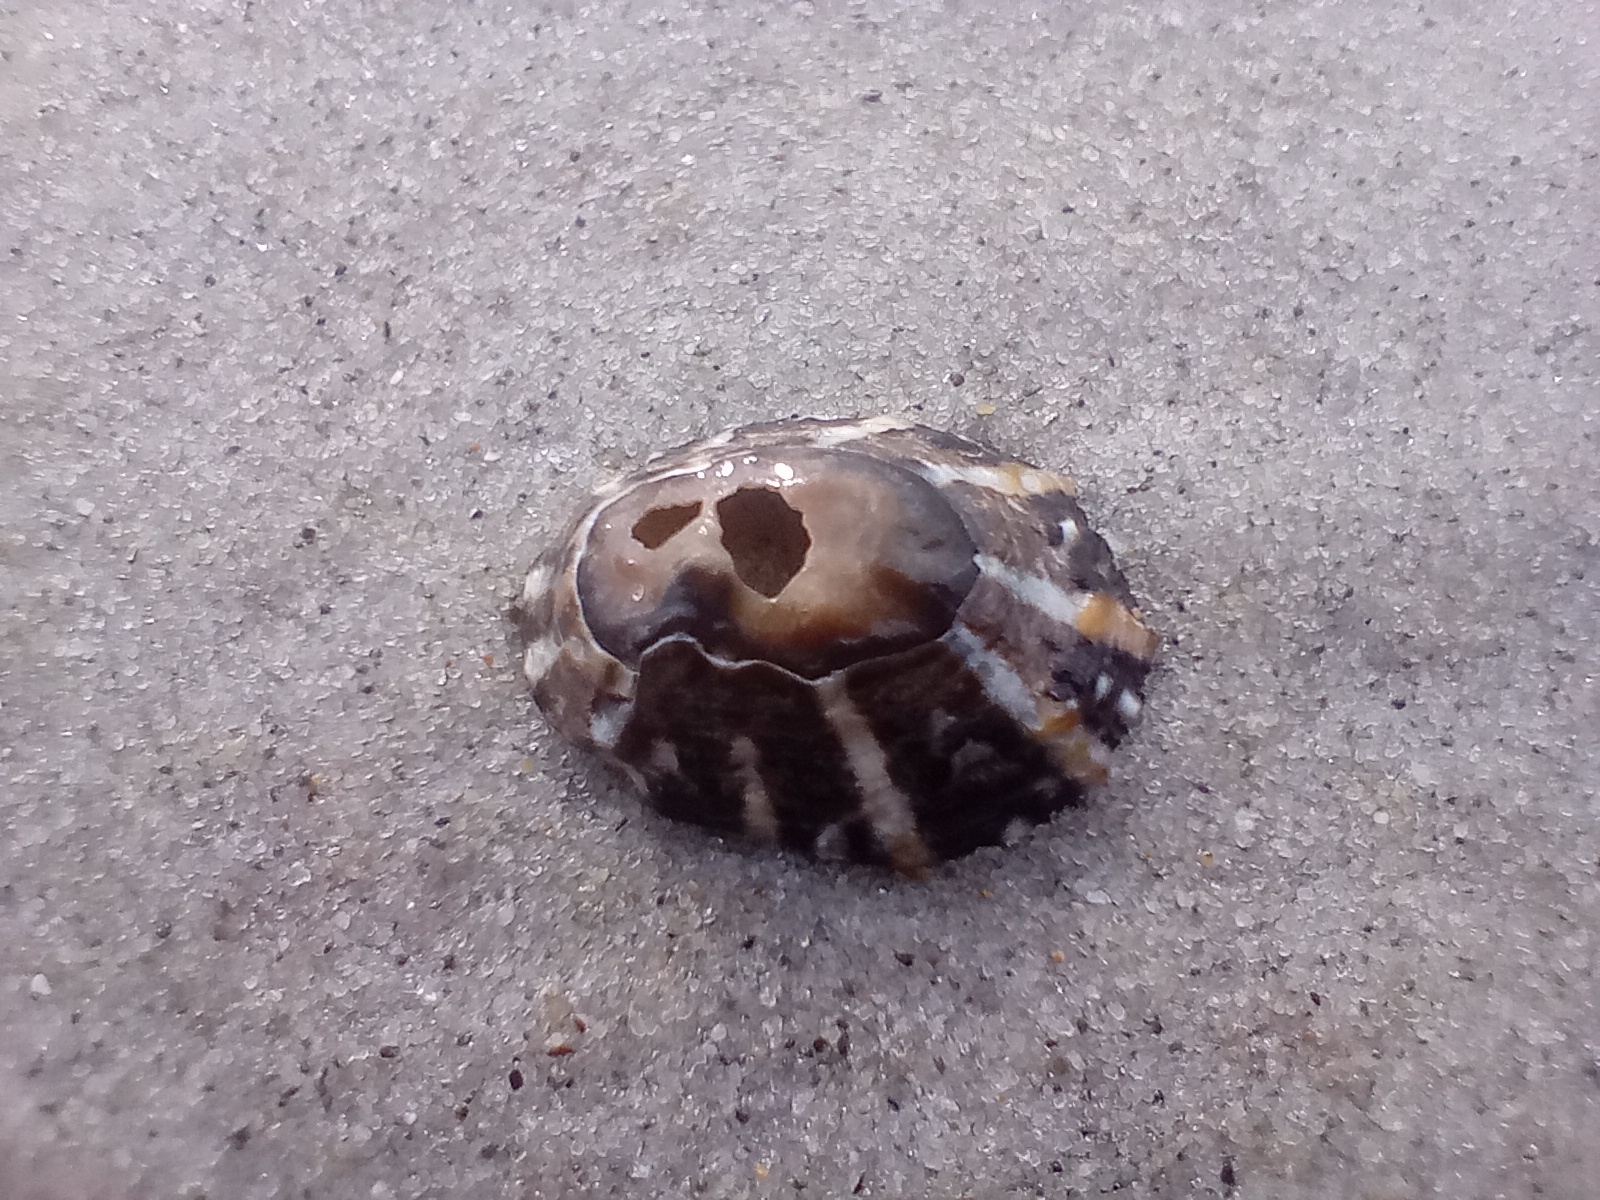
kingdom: Animalia
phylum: Mollusca
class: Gastropoda
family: Nacellidae
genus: Cellana
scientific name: Cellana ornata
